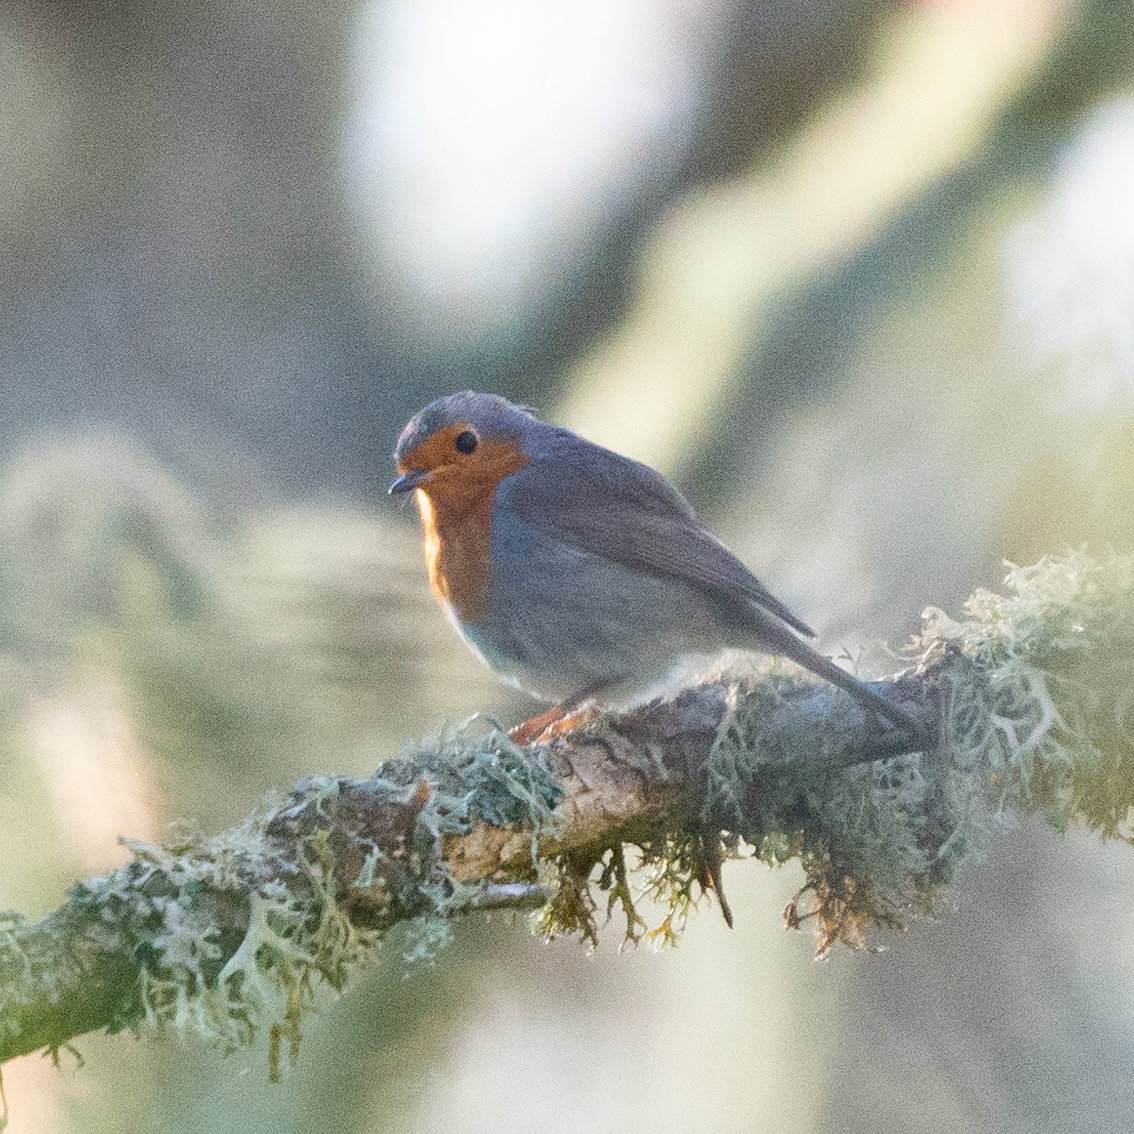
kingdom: Animalia
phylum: Chordata
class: Aves
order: Passeriformes
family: Muscicapidae
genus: Erithacus
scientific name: Erithacus rubecula
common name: European robin
